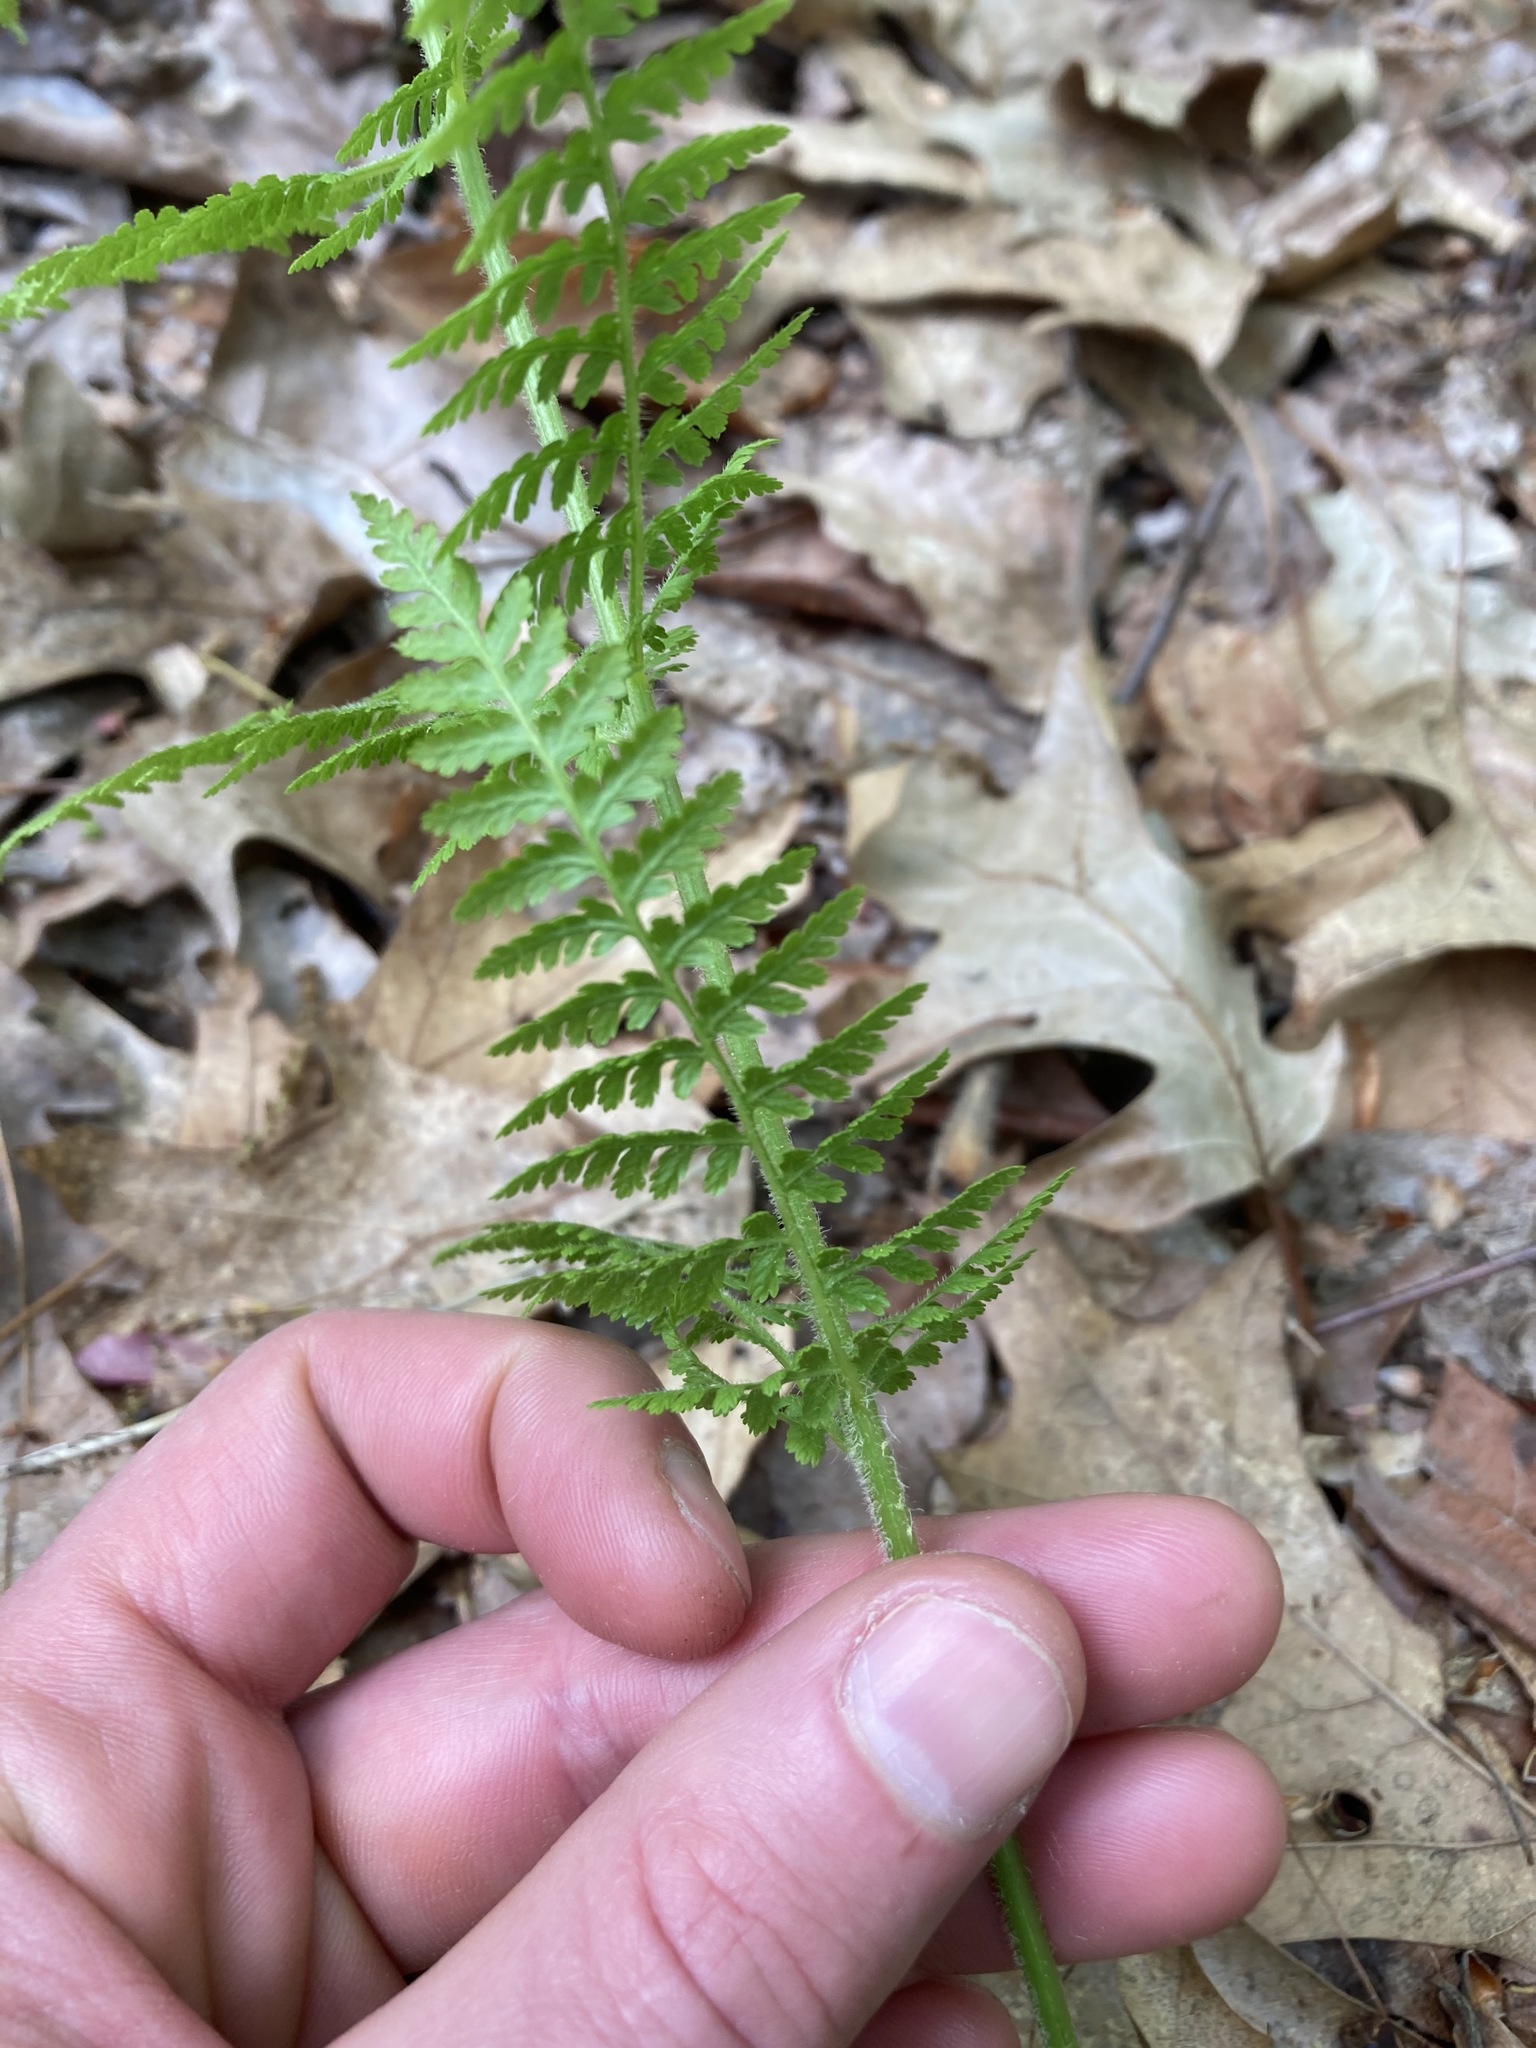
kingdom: Plantae
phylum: Tracheophyta
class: Polypodiopsida
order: Polypodiales
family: Dennstaedtiaceae
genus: Sitobolium
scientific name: Sitobolium punctilobum
